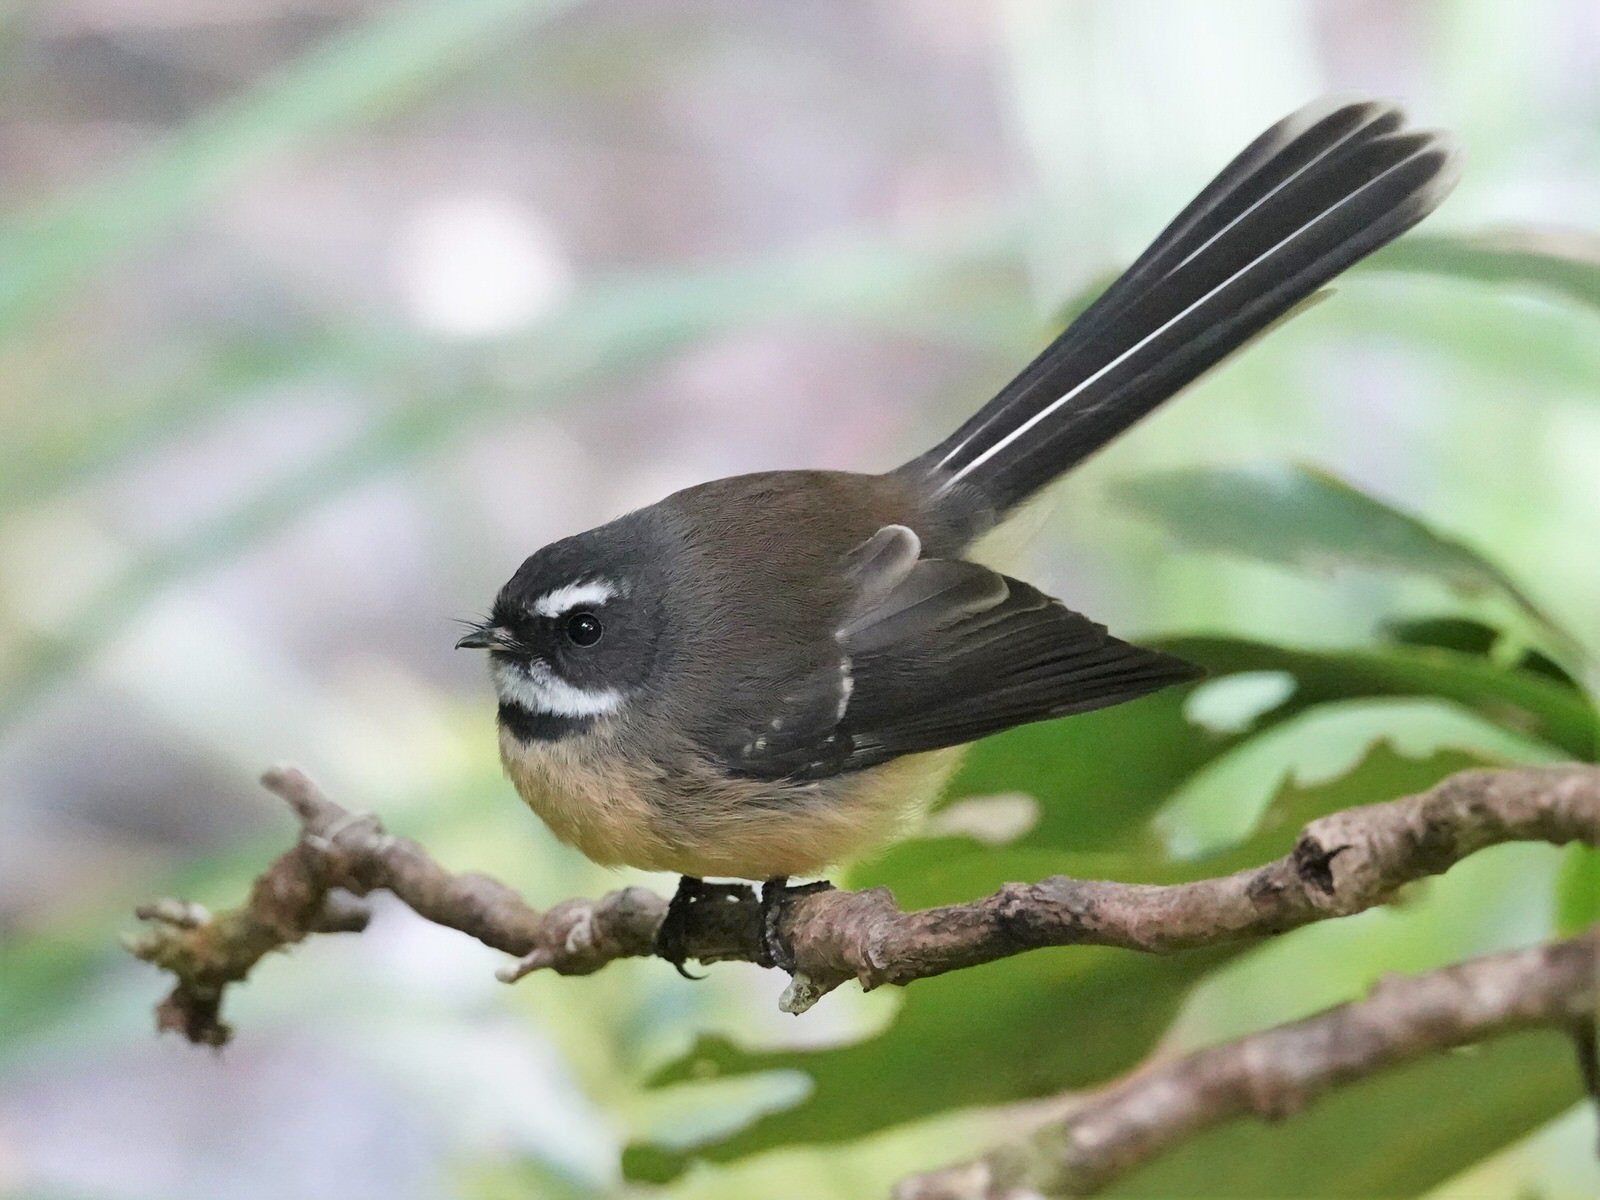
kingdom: Animalia
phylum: Chordata
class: Aves
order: Passeriformes
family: Rhipiduridae
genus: Rhipidura
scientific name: Rhipidura fuliginosa
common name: New zealand fantail
